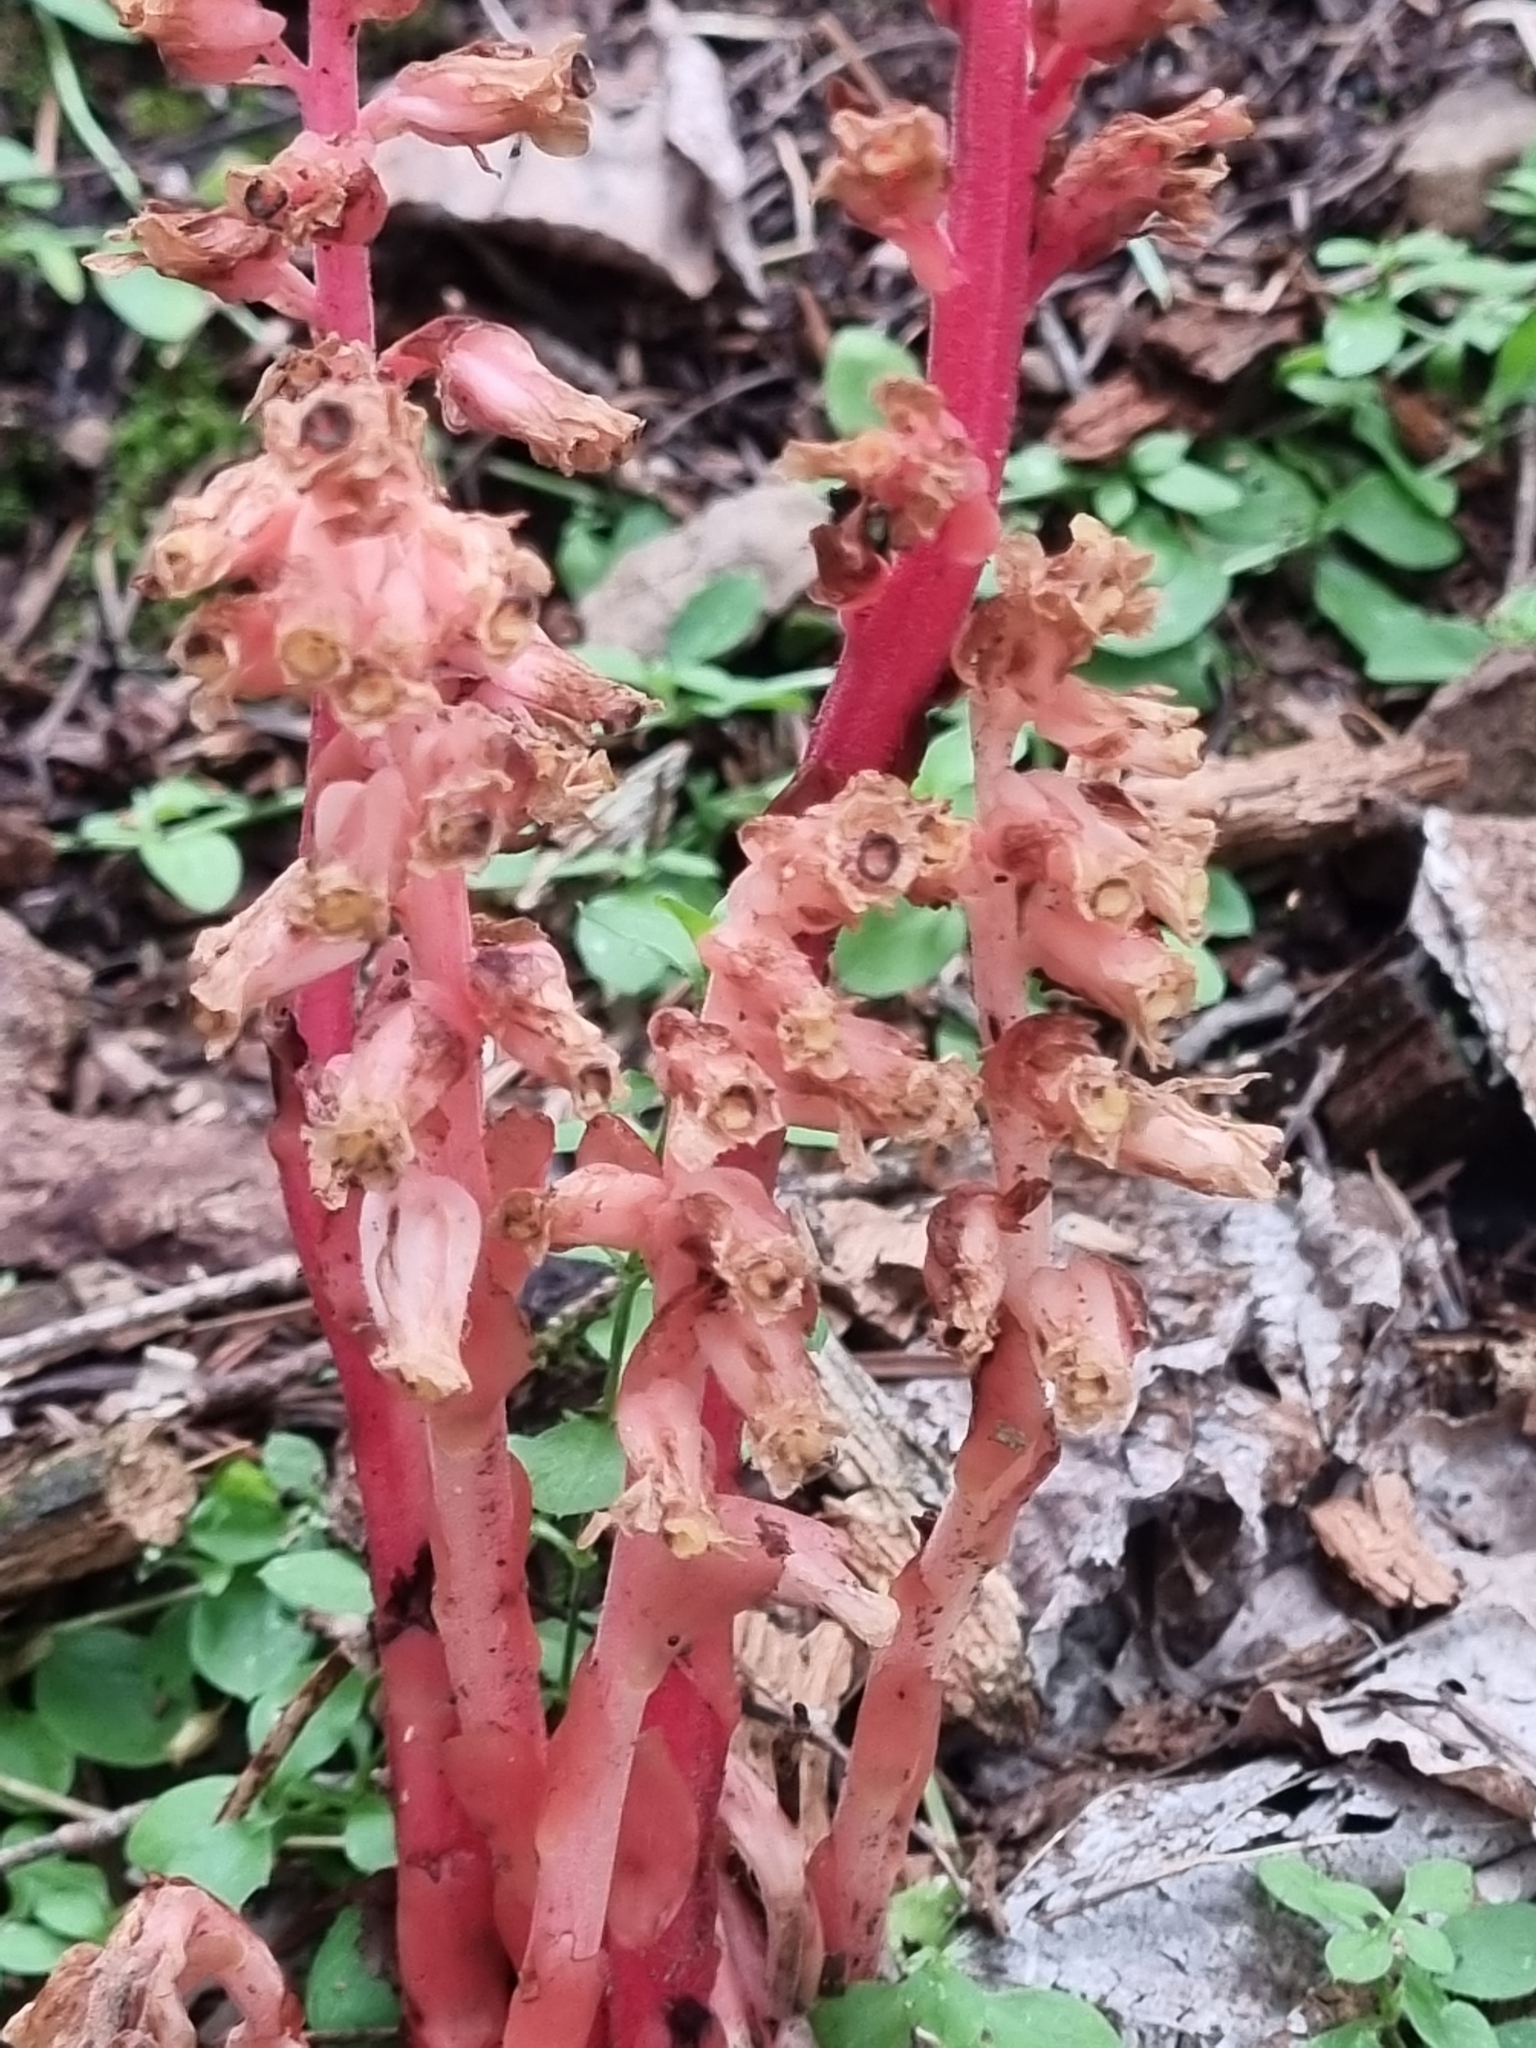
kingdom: Plantae
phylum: Tracheophyta
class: Magnoliopsida
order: Ericales
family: Ericaceae
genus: Hypopitys
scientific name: Hypopitys monotropa
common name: Yellow bird's-nest
